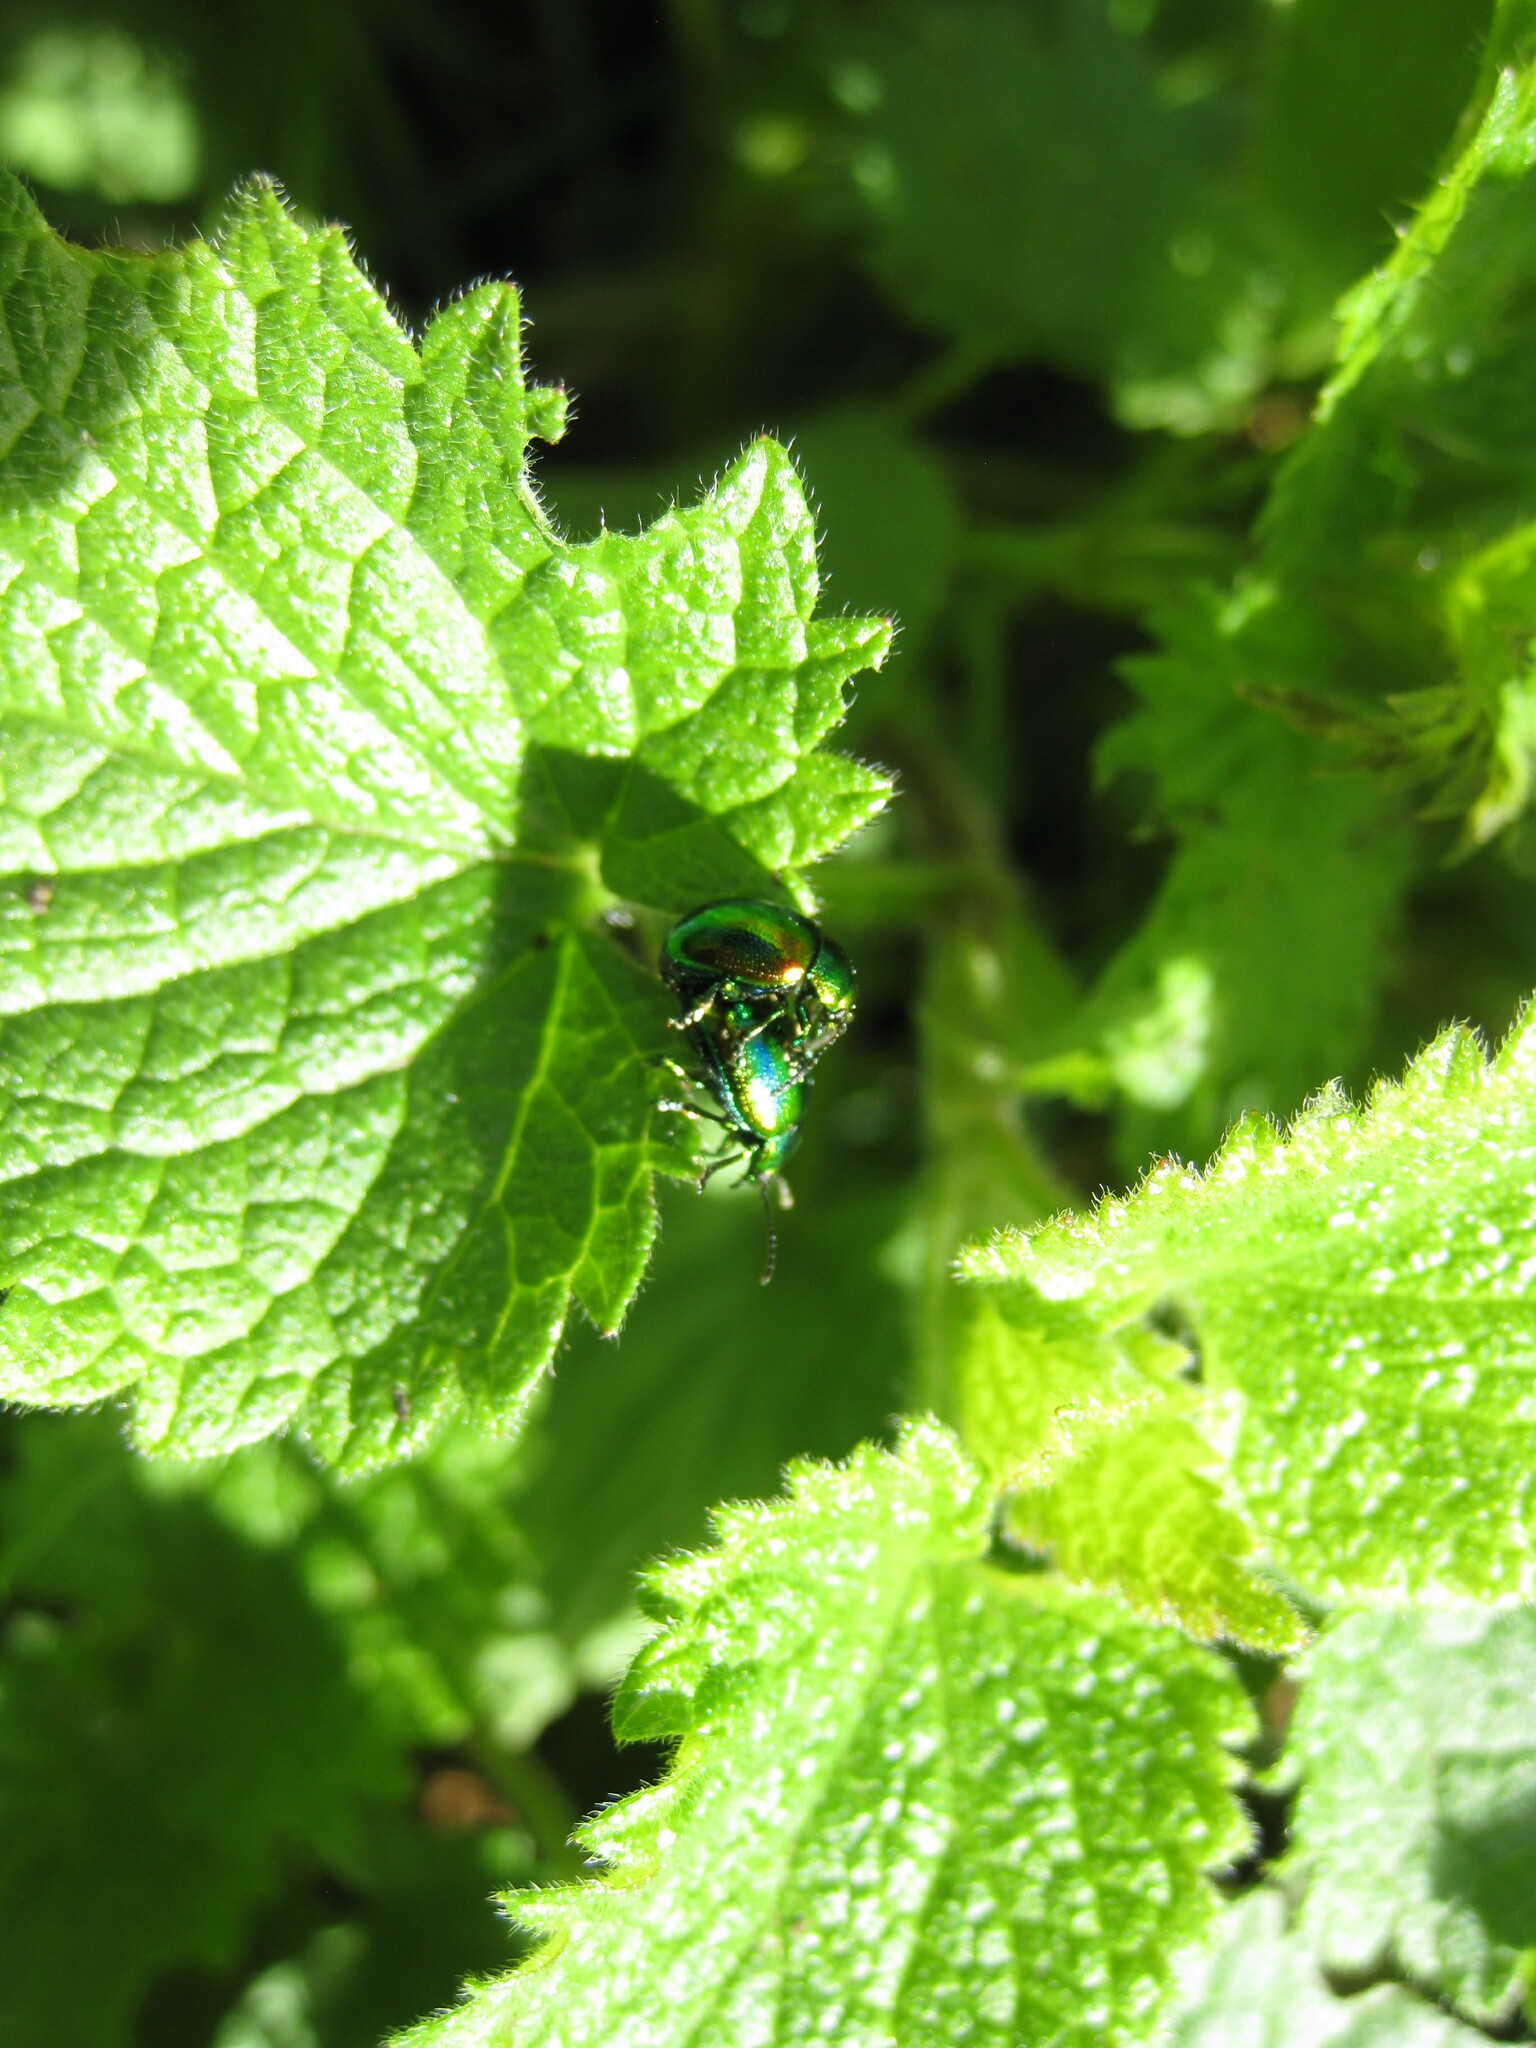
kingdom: Animalia
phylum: Arthropoda
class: Insecta
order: Coleoptera
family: Chrysomelidae
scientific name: Chrysomelidae
